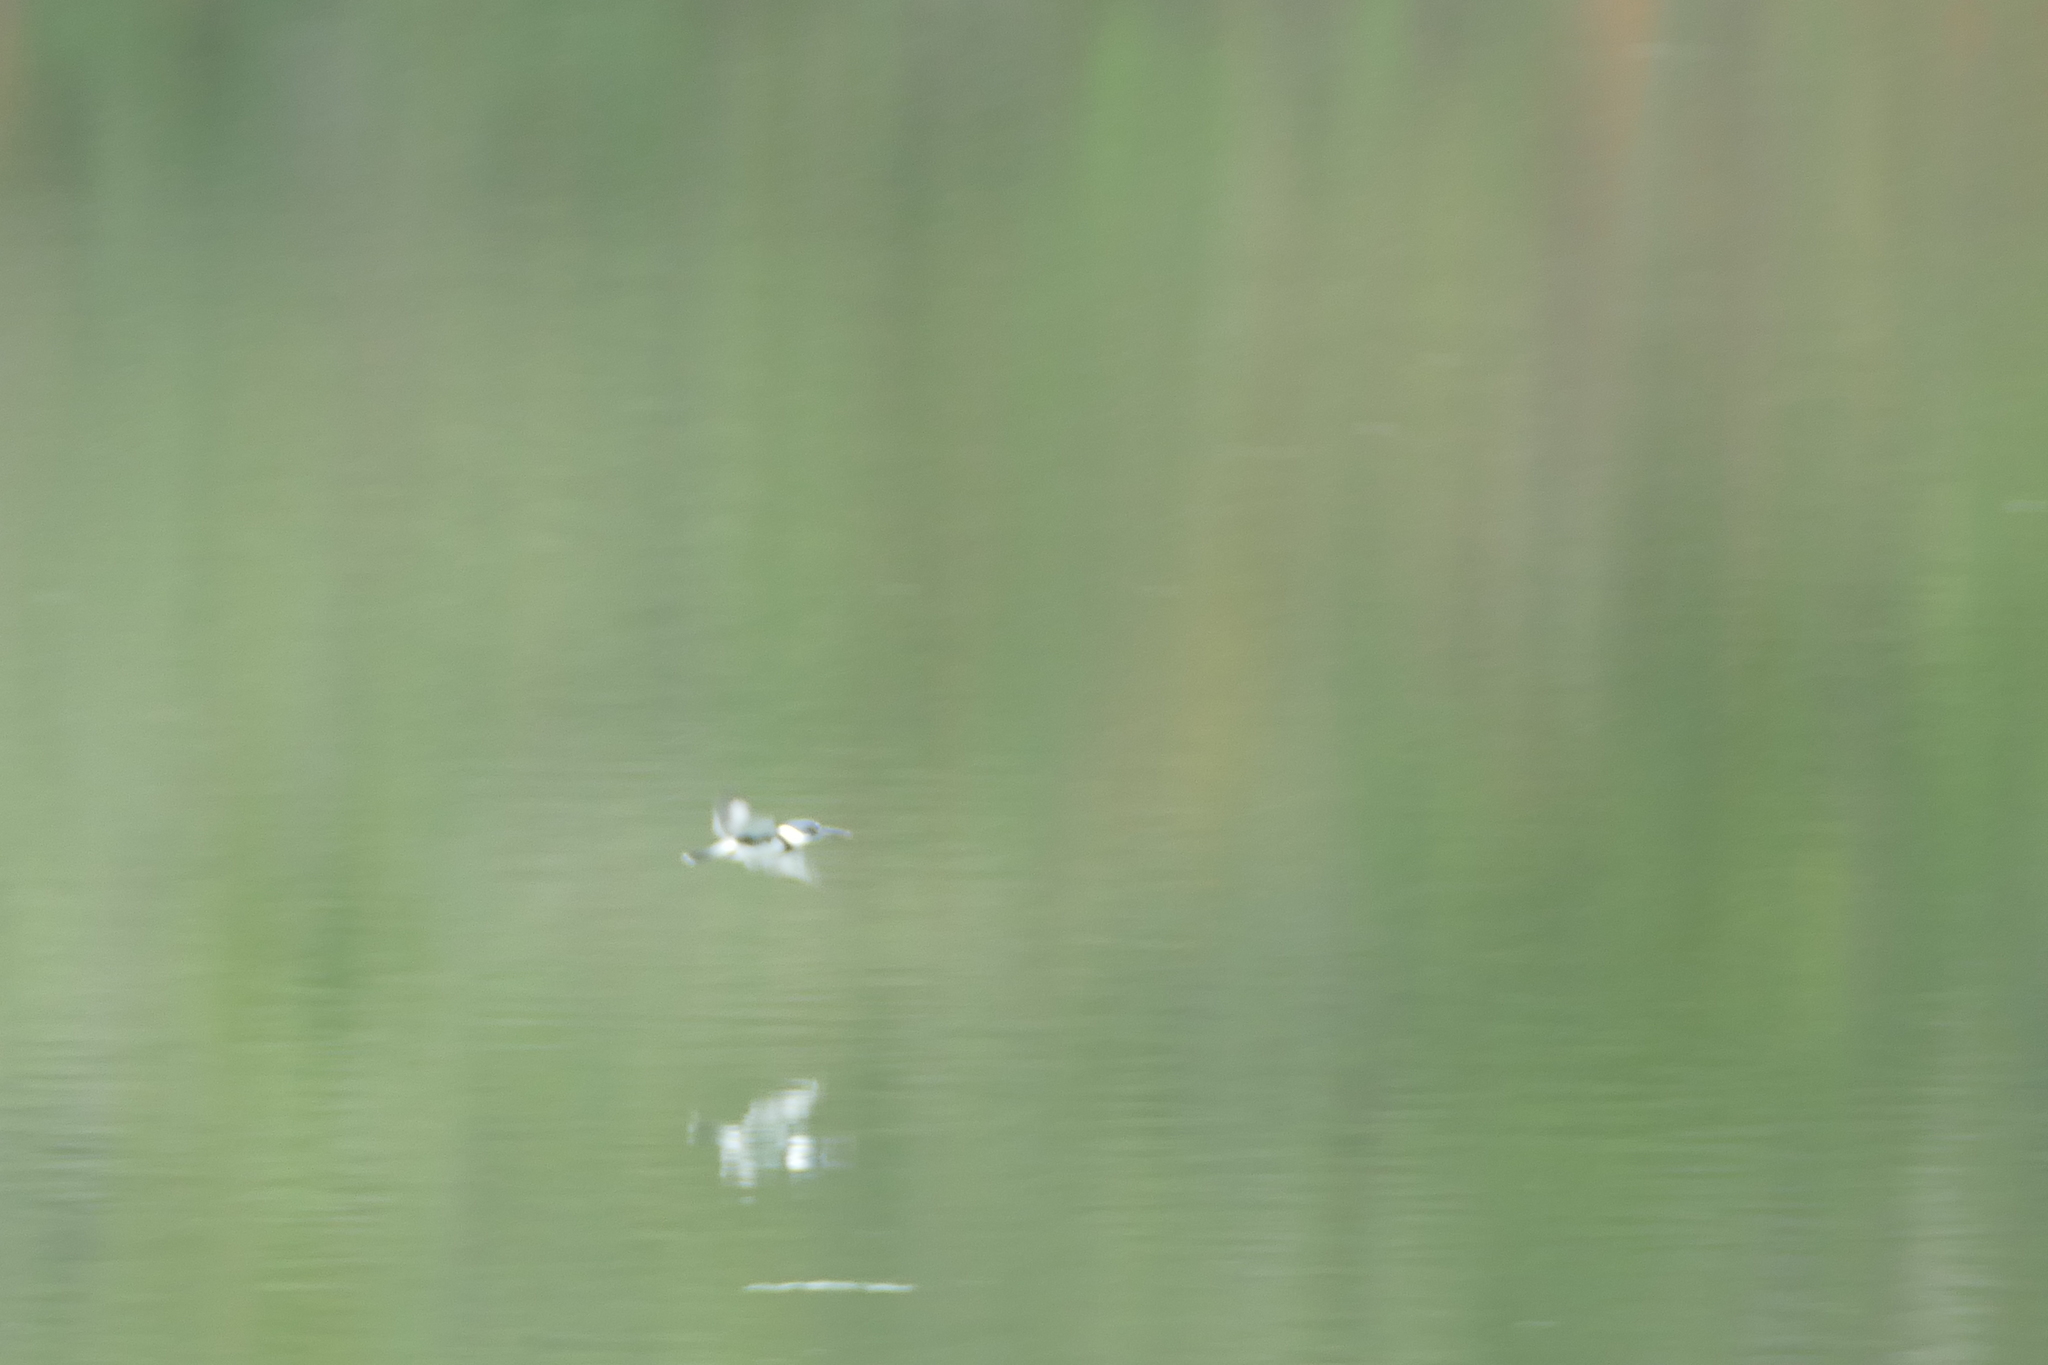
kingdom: Animalia
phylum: Chordata
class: Aves
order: Coraciiformes
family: Alcedinidae
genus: Megaceryle
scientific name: Megaceryle alcyon
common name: Belted kingfisher
